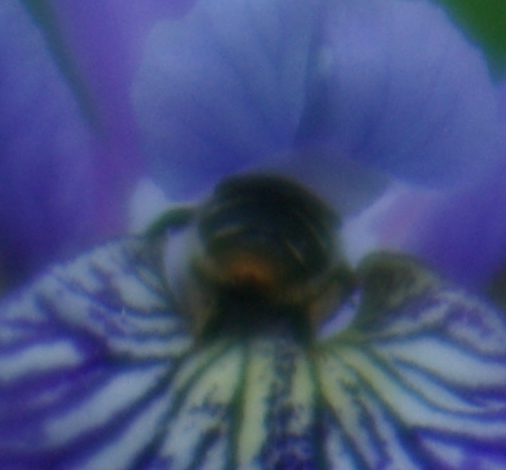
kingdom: Animalia
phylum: Arthropoda
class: Insecta
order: Hymenoptera
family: Apidae
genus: Anthophora
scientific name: Anthophora terminalis
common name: Orange-tipped wood-digger bee
